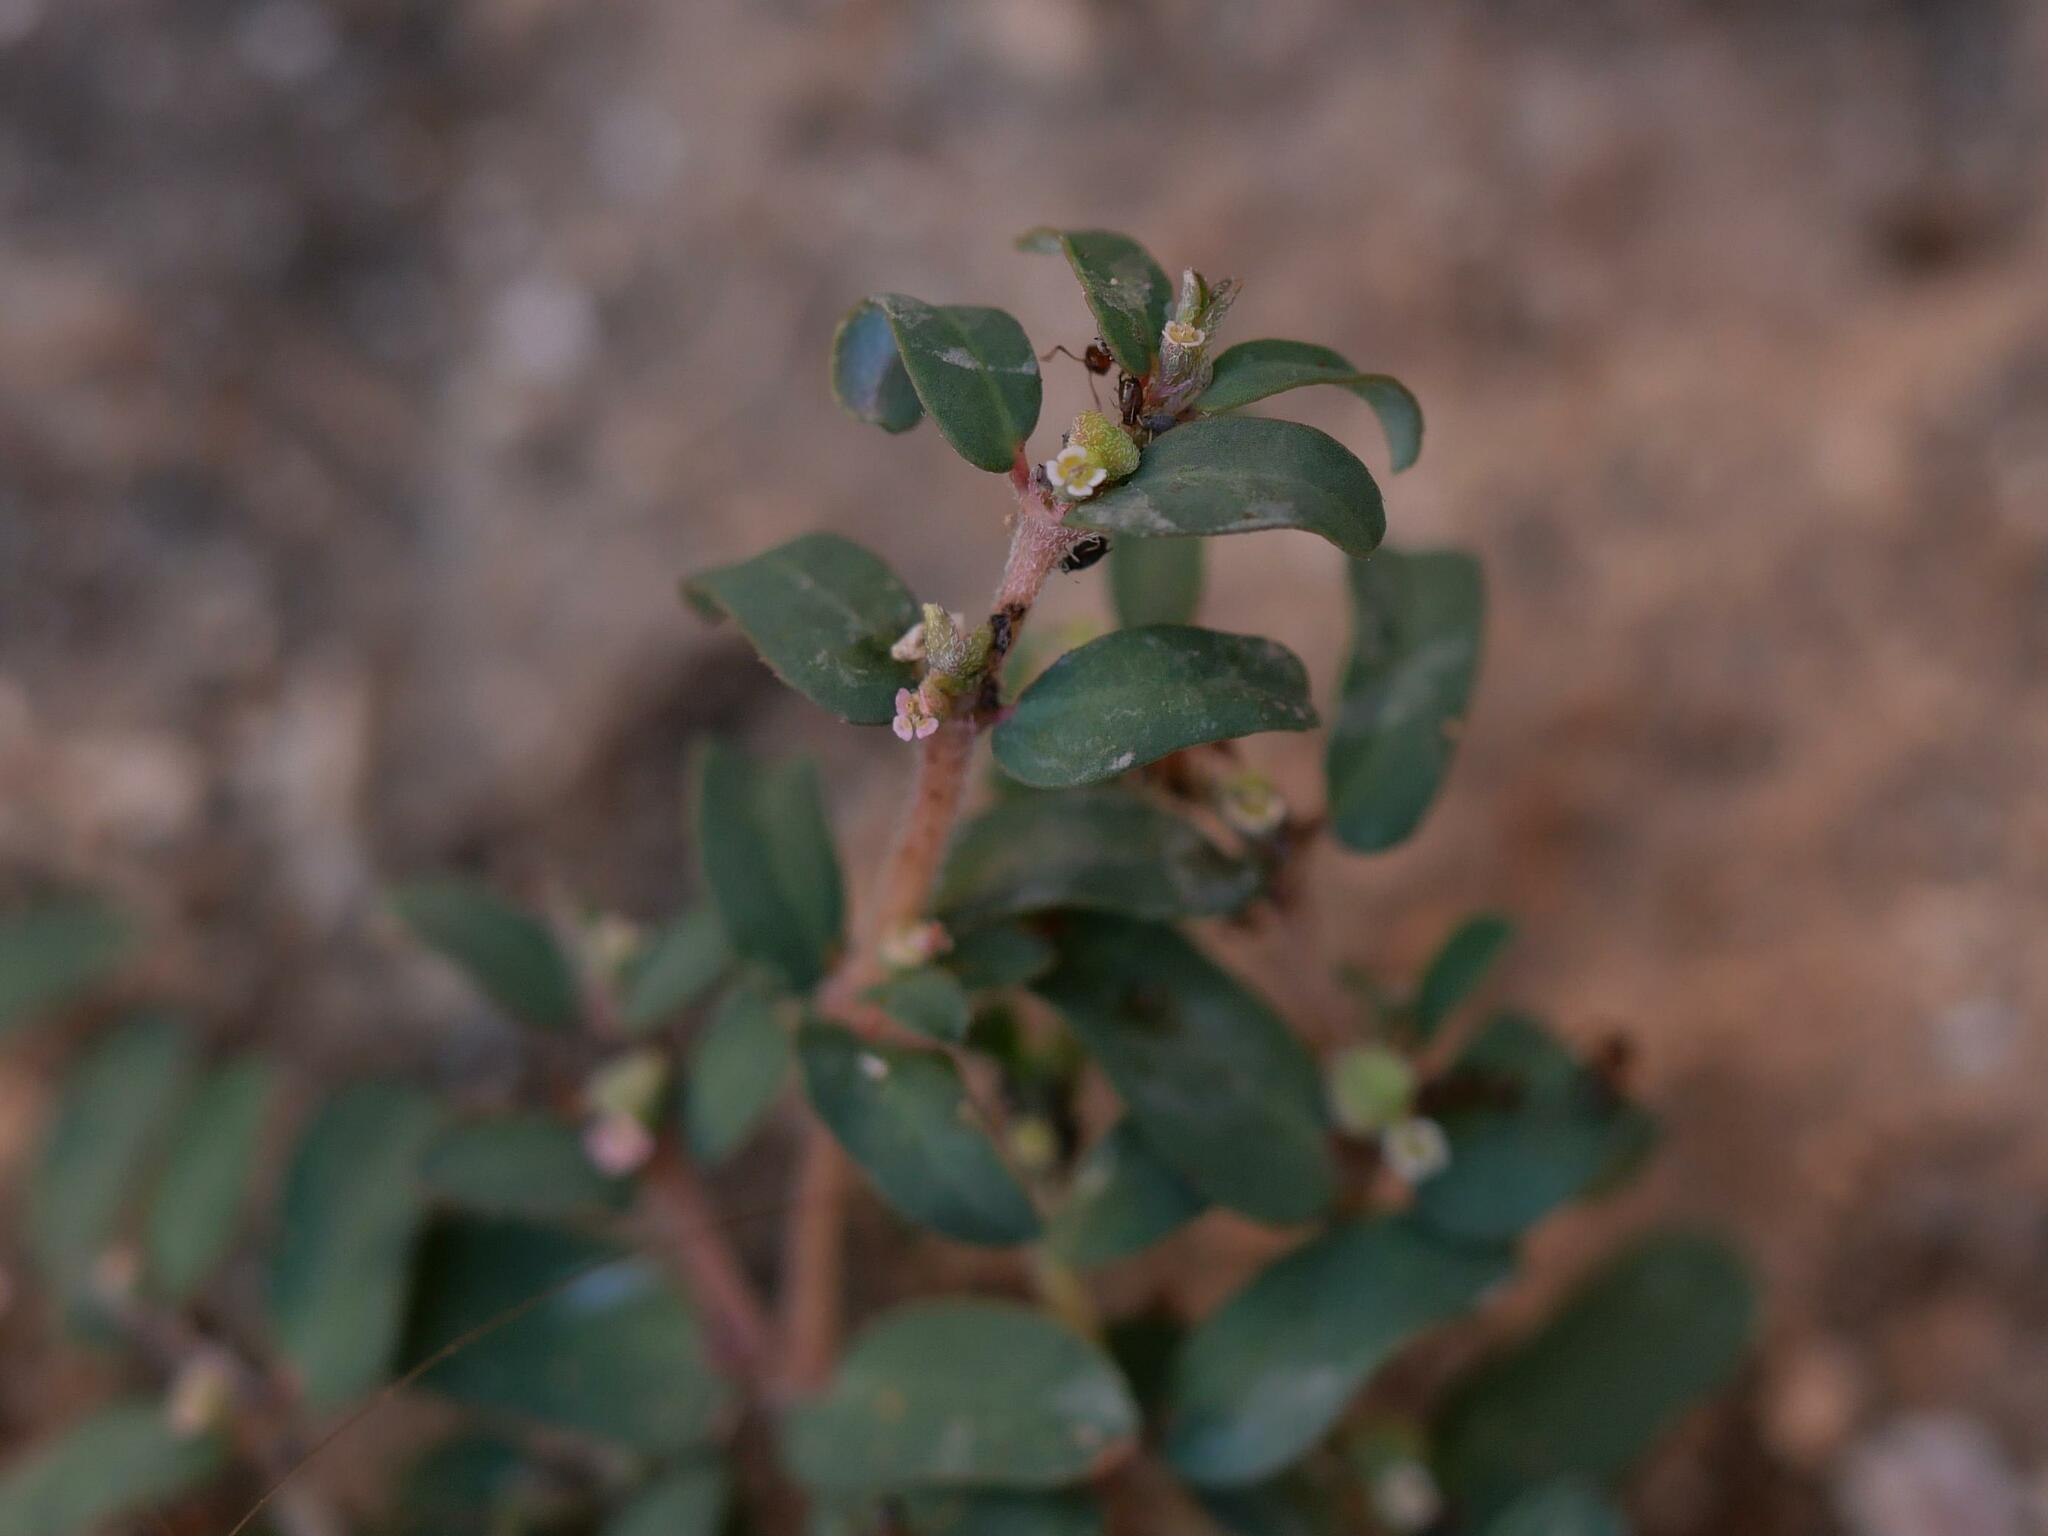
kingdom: Plantae
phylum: Tracheophyta
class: Magnoliopsida
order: Malpighiales
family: Euphorbiaceae
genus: Euphorbia
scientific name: Euphorbia maculata
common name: Spotted spurge
